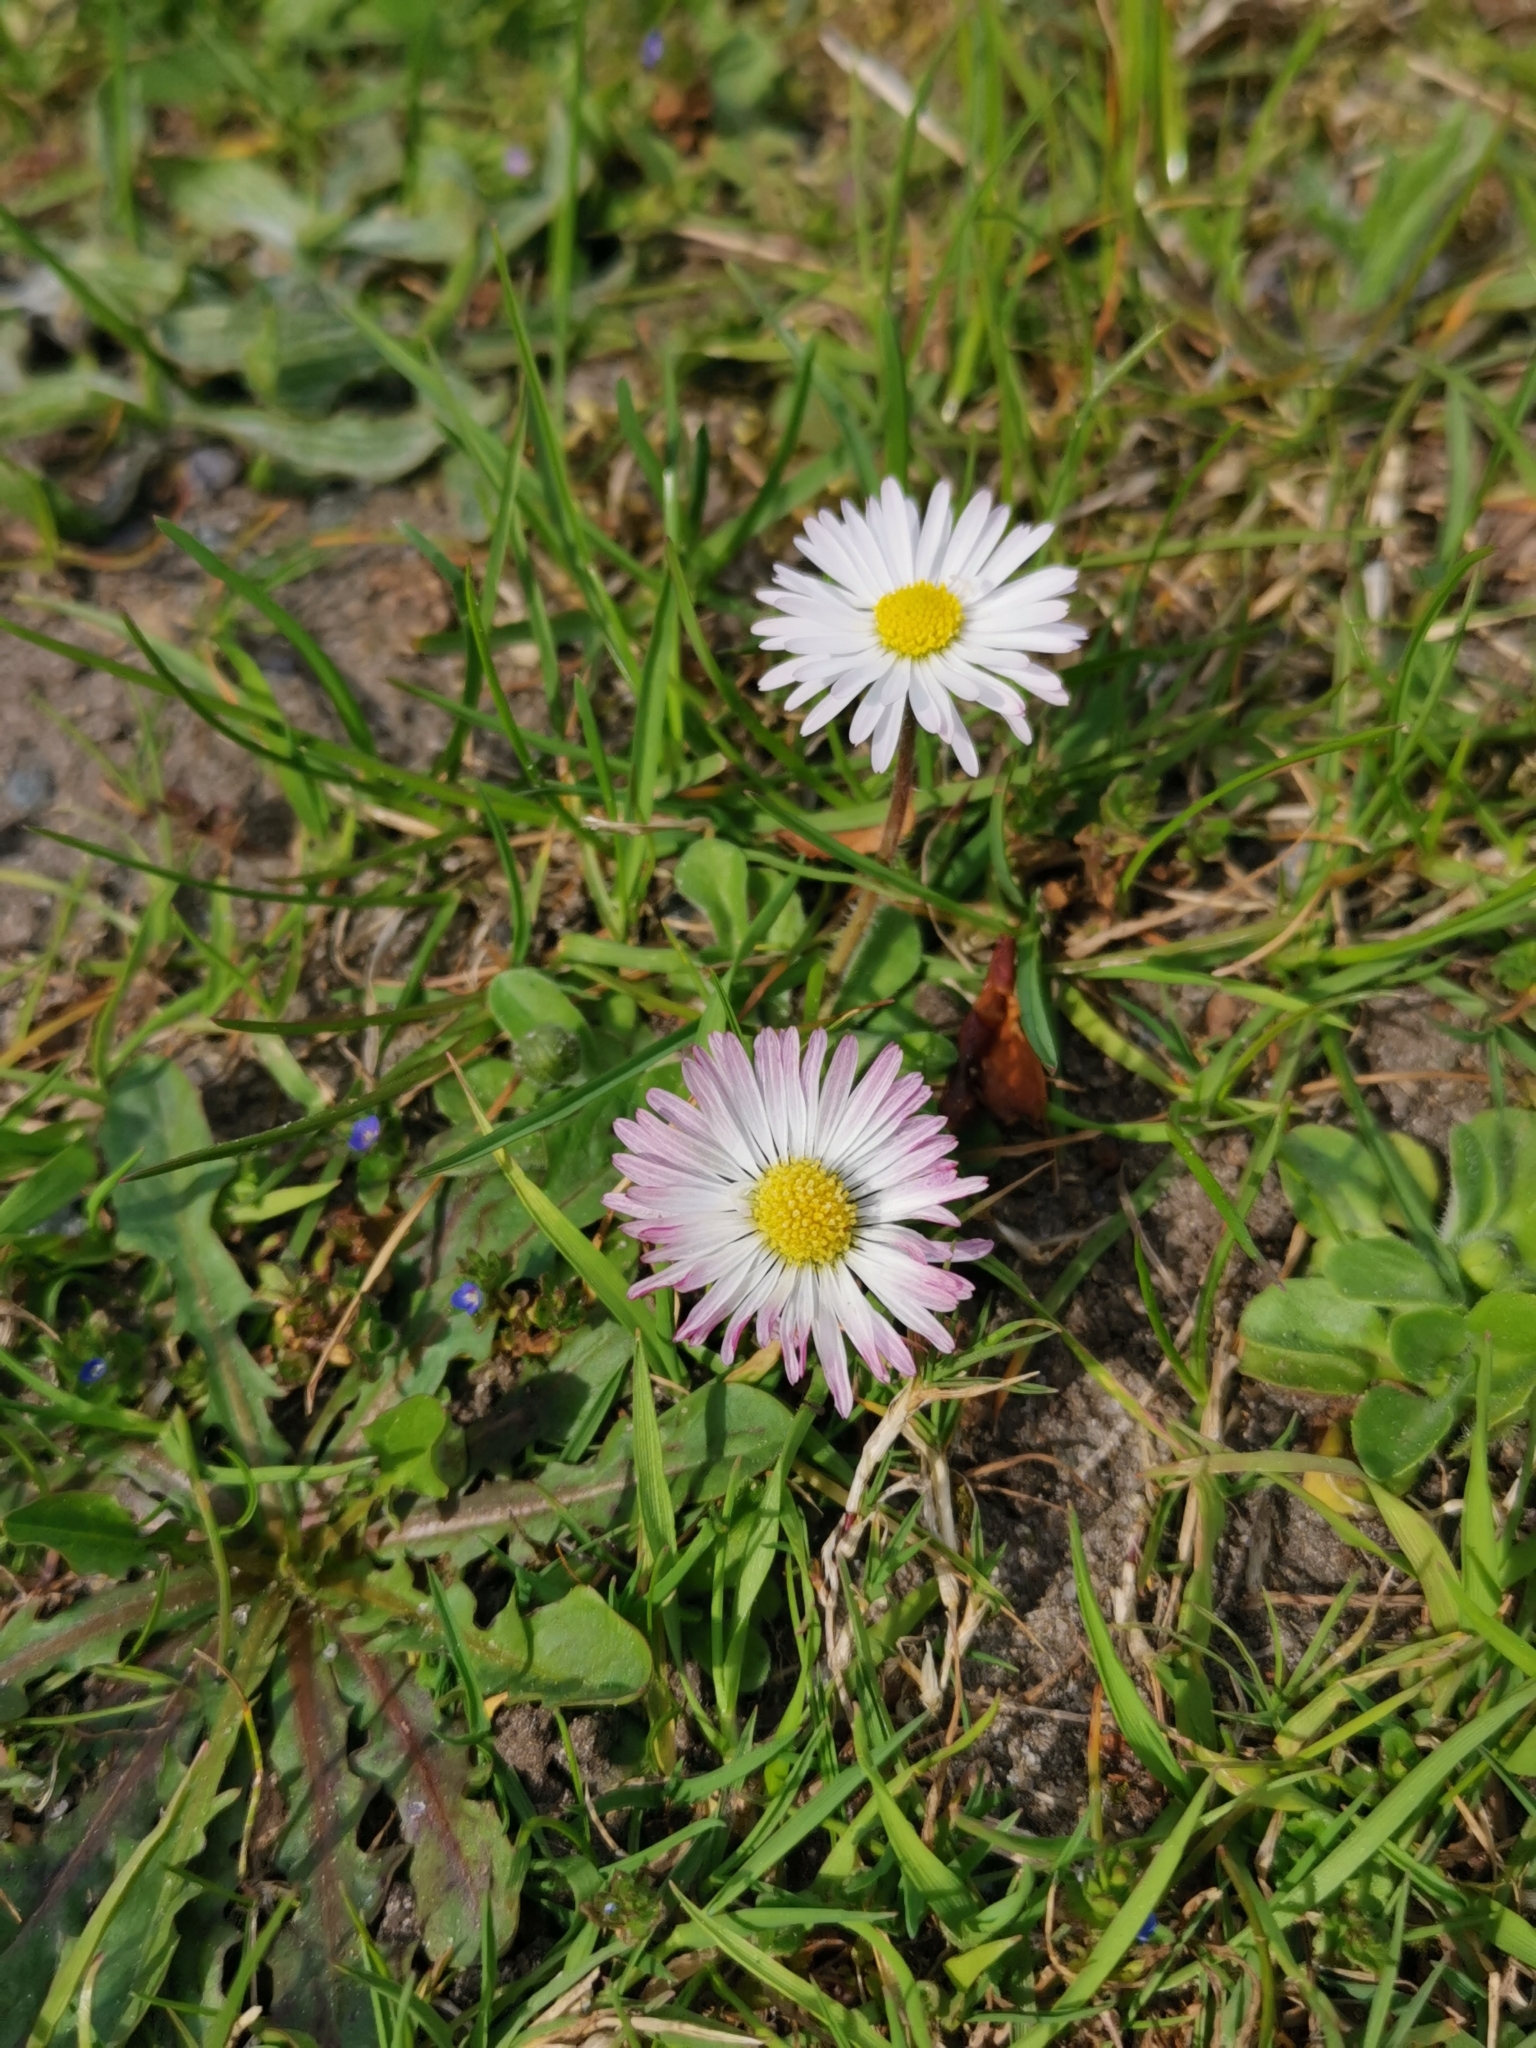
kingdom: Plantae
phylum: Tracheophyta
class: Magnoliopsida
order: Asterales
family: Asteraceae
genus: Bellis
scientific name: Bellis perennis
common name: Lawndaisy
